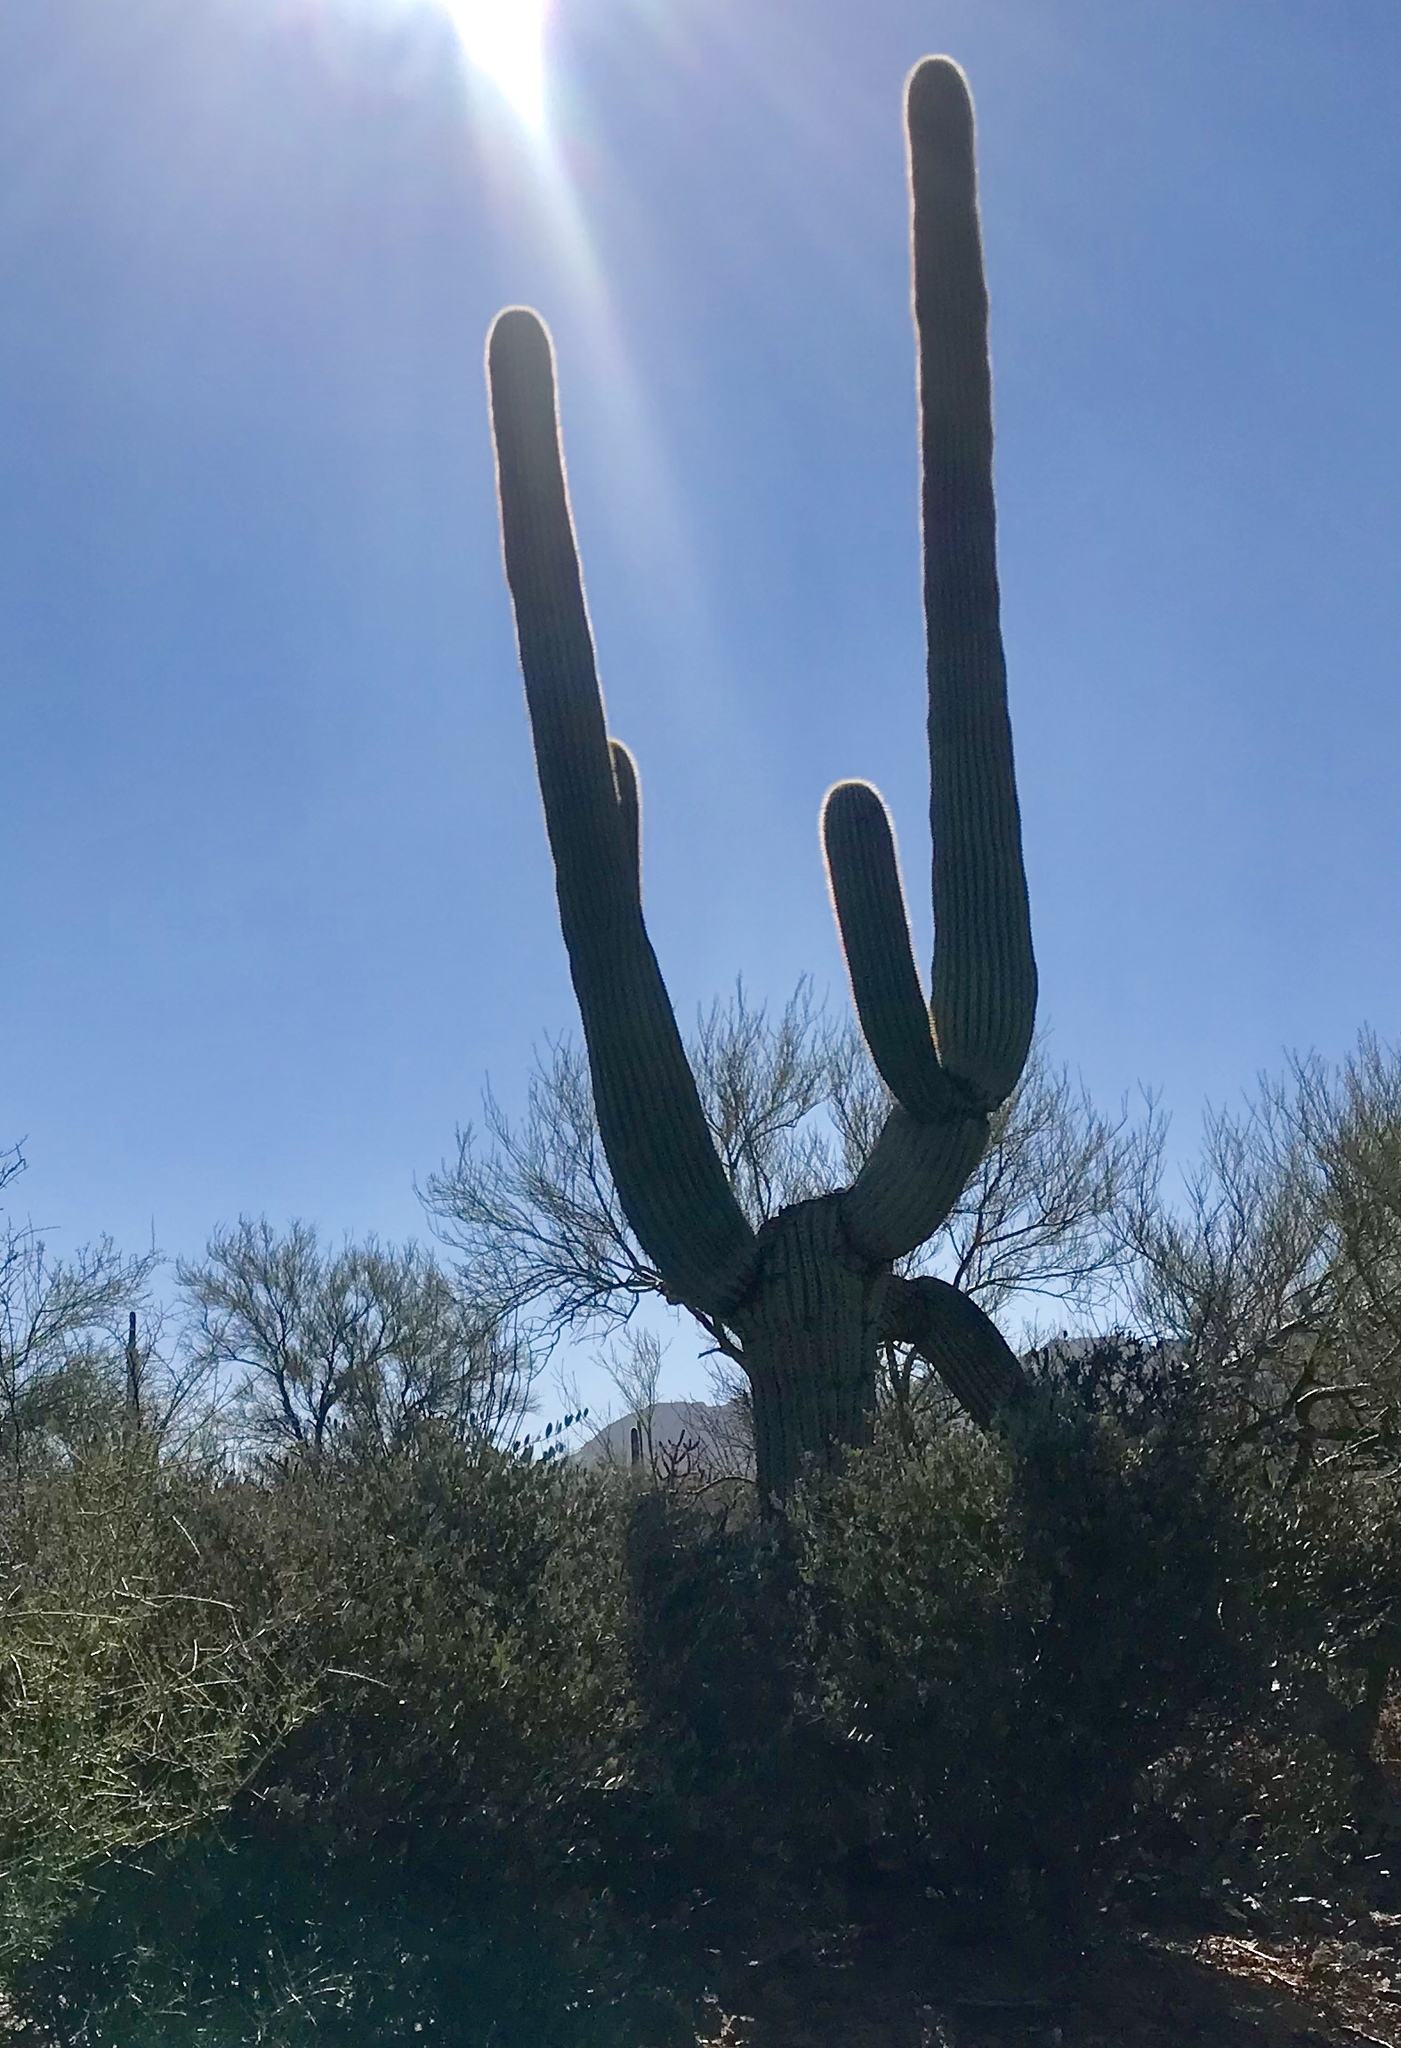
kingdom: Plantae
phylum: Tracheophyta
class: Magnoliopsida
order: Caryophyllales
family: Cactaceae
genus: Carnegiea
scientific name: Carnegiea gigantea
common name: Saguaro
